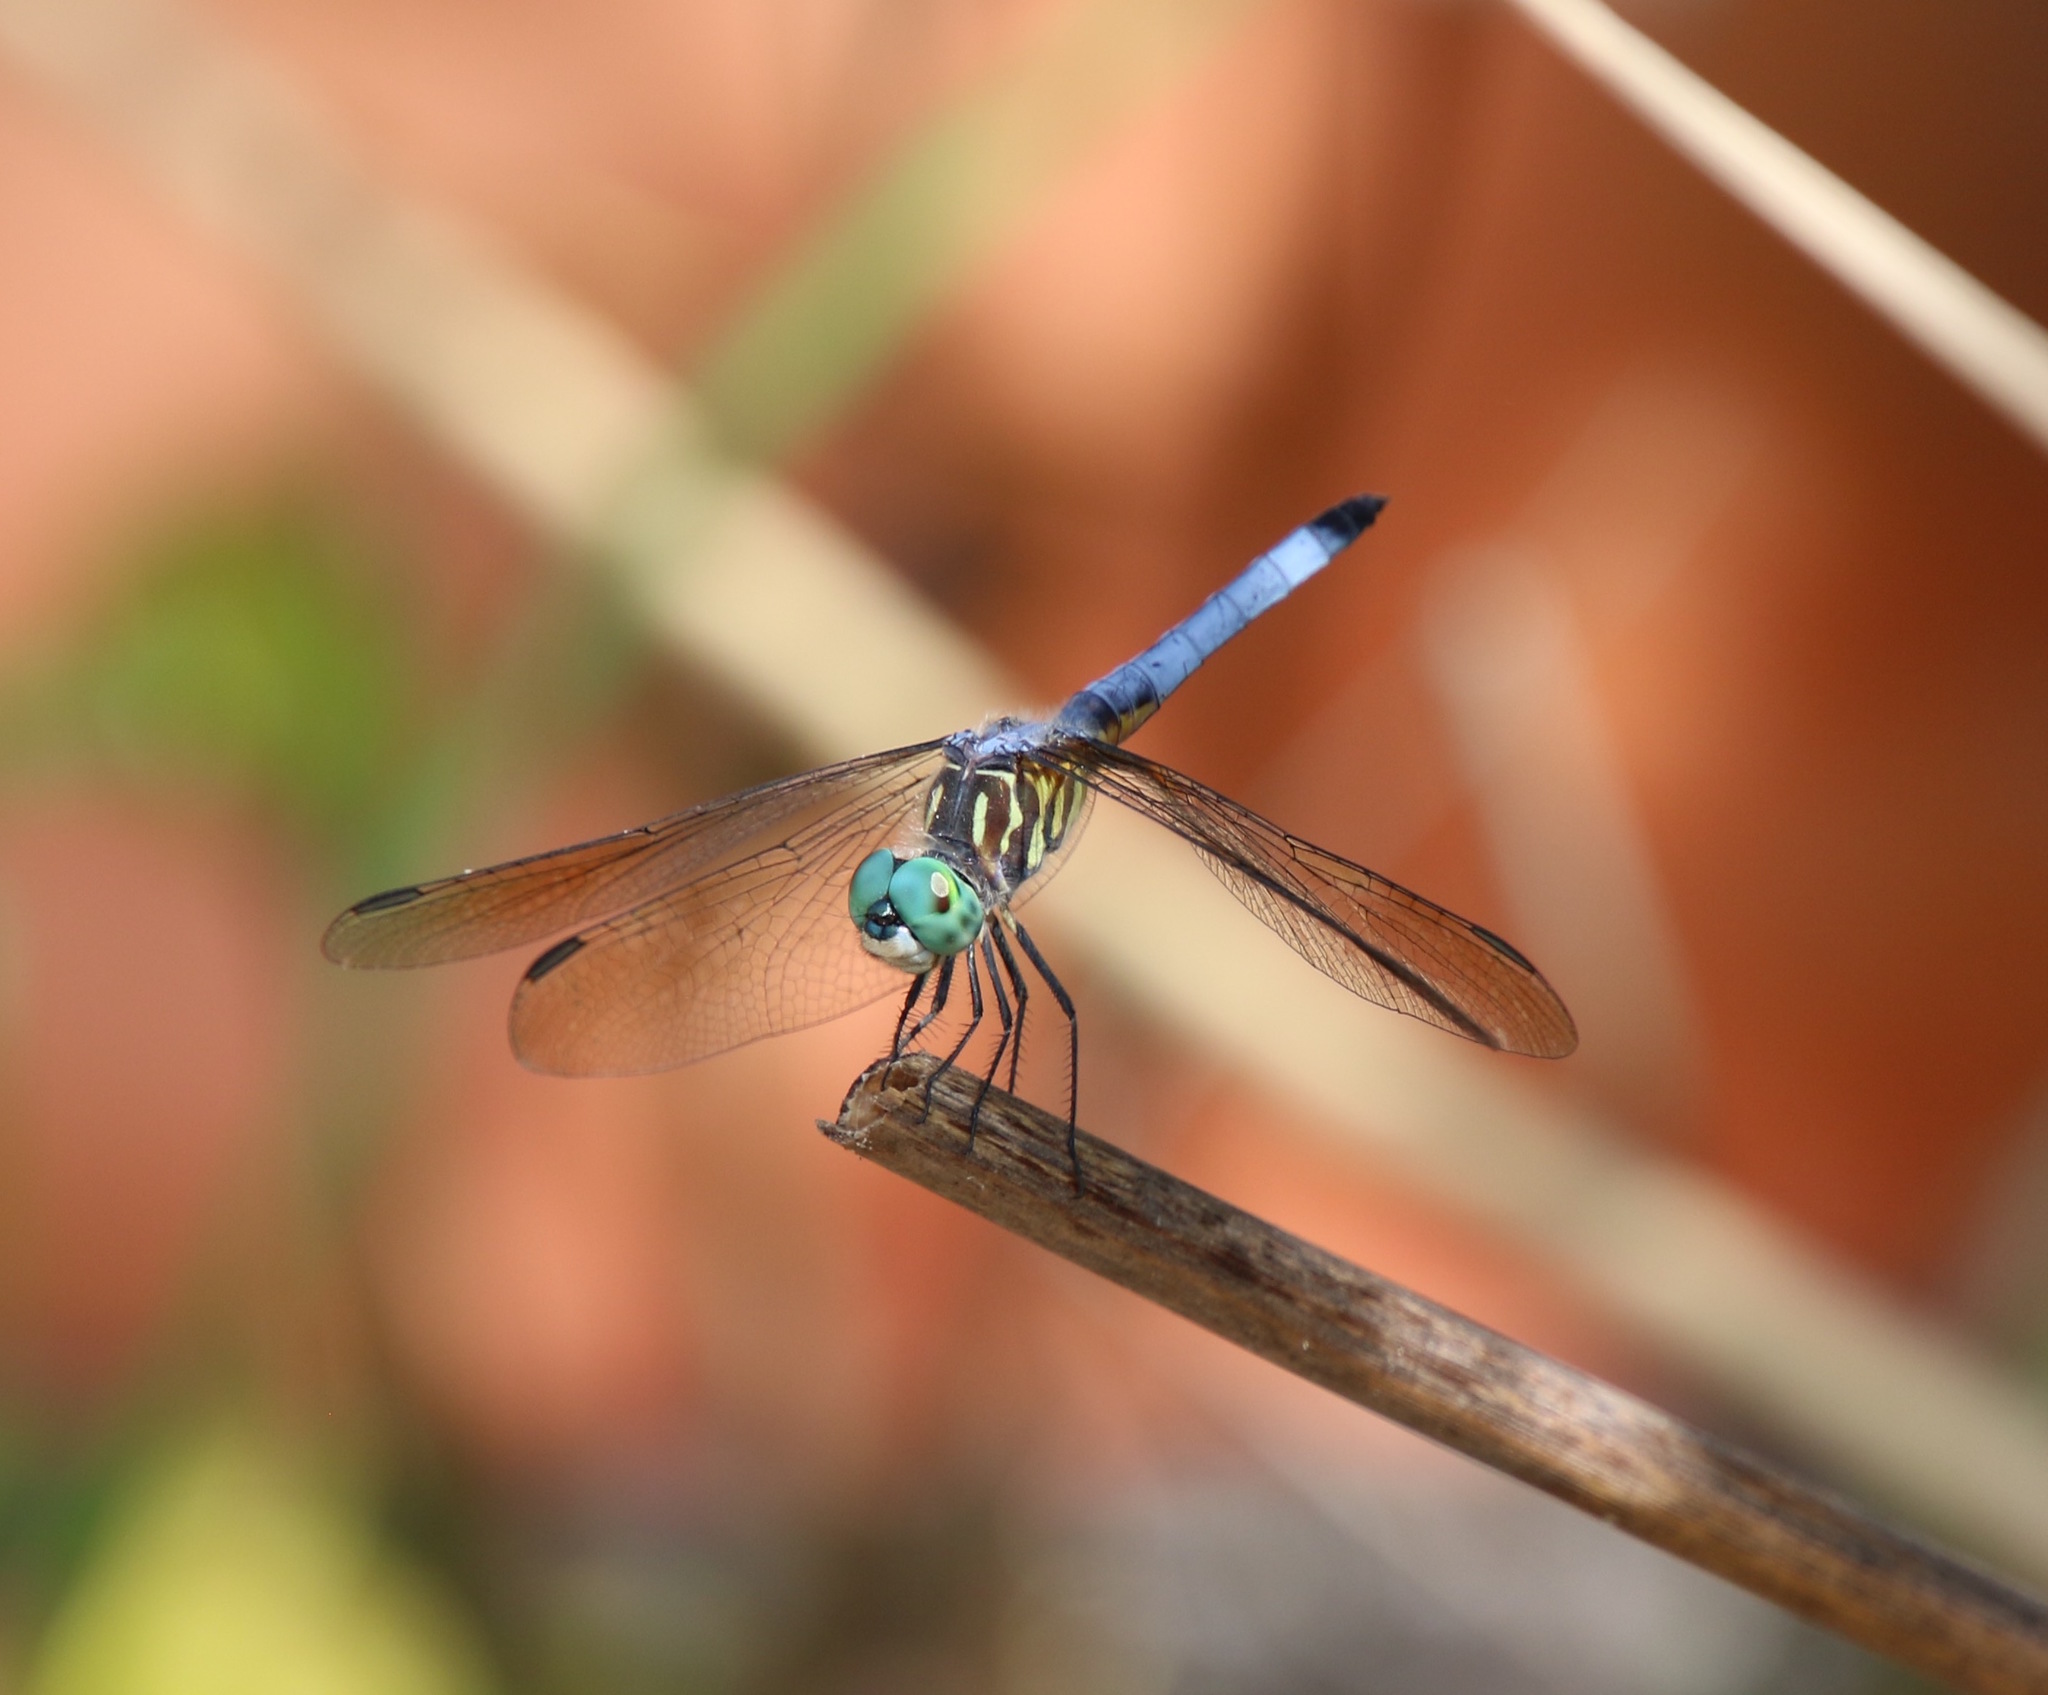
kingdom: Animalia
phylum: Arthropoda
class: Insecta
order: Odonata
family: Libellulidae
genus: Pachydiplax
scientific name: Pachydiplax longipennis
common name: Blue dasher
